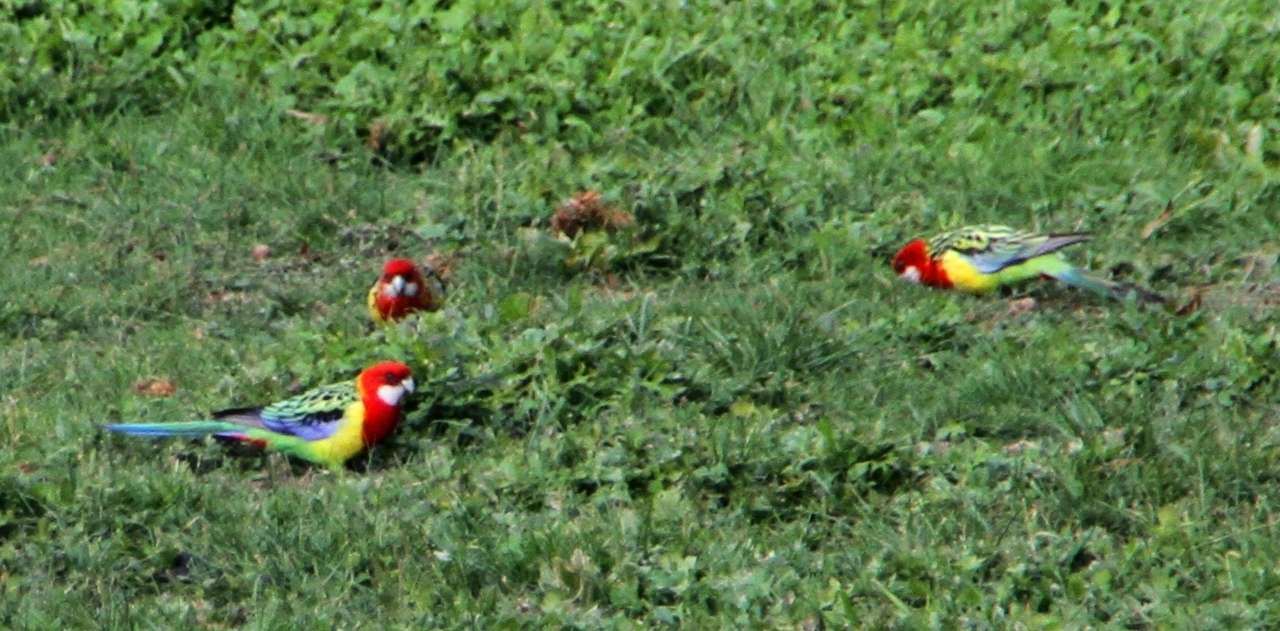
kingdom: Animalia
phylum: Chordata
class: Aves
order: Psittaciformes
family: Psittacidae
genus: Platycercus
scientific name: Platycercus eximius
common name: Eastern rosella
